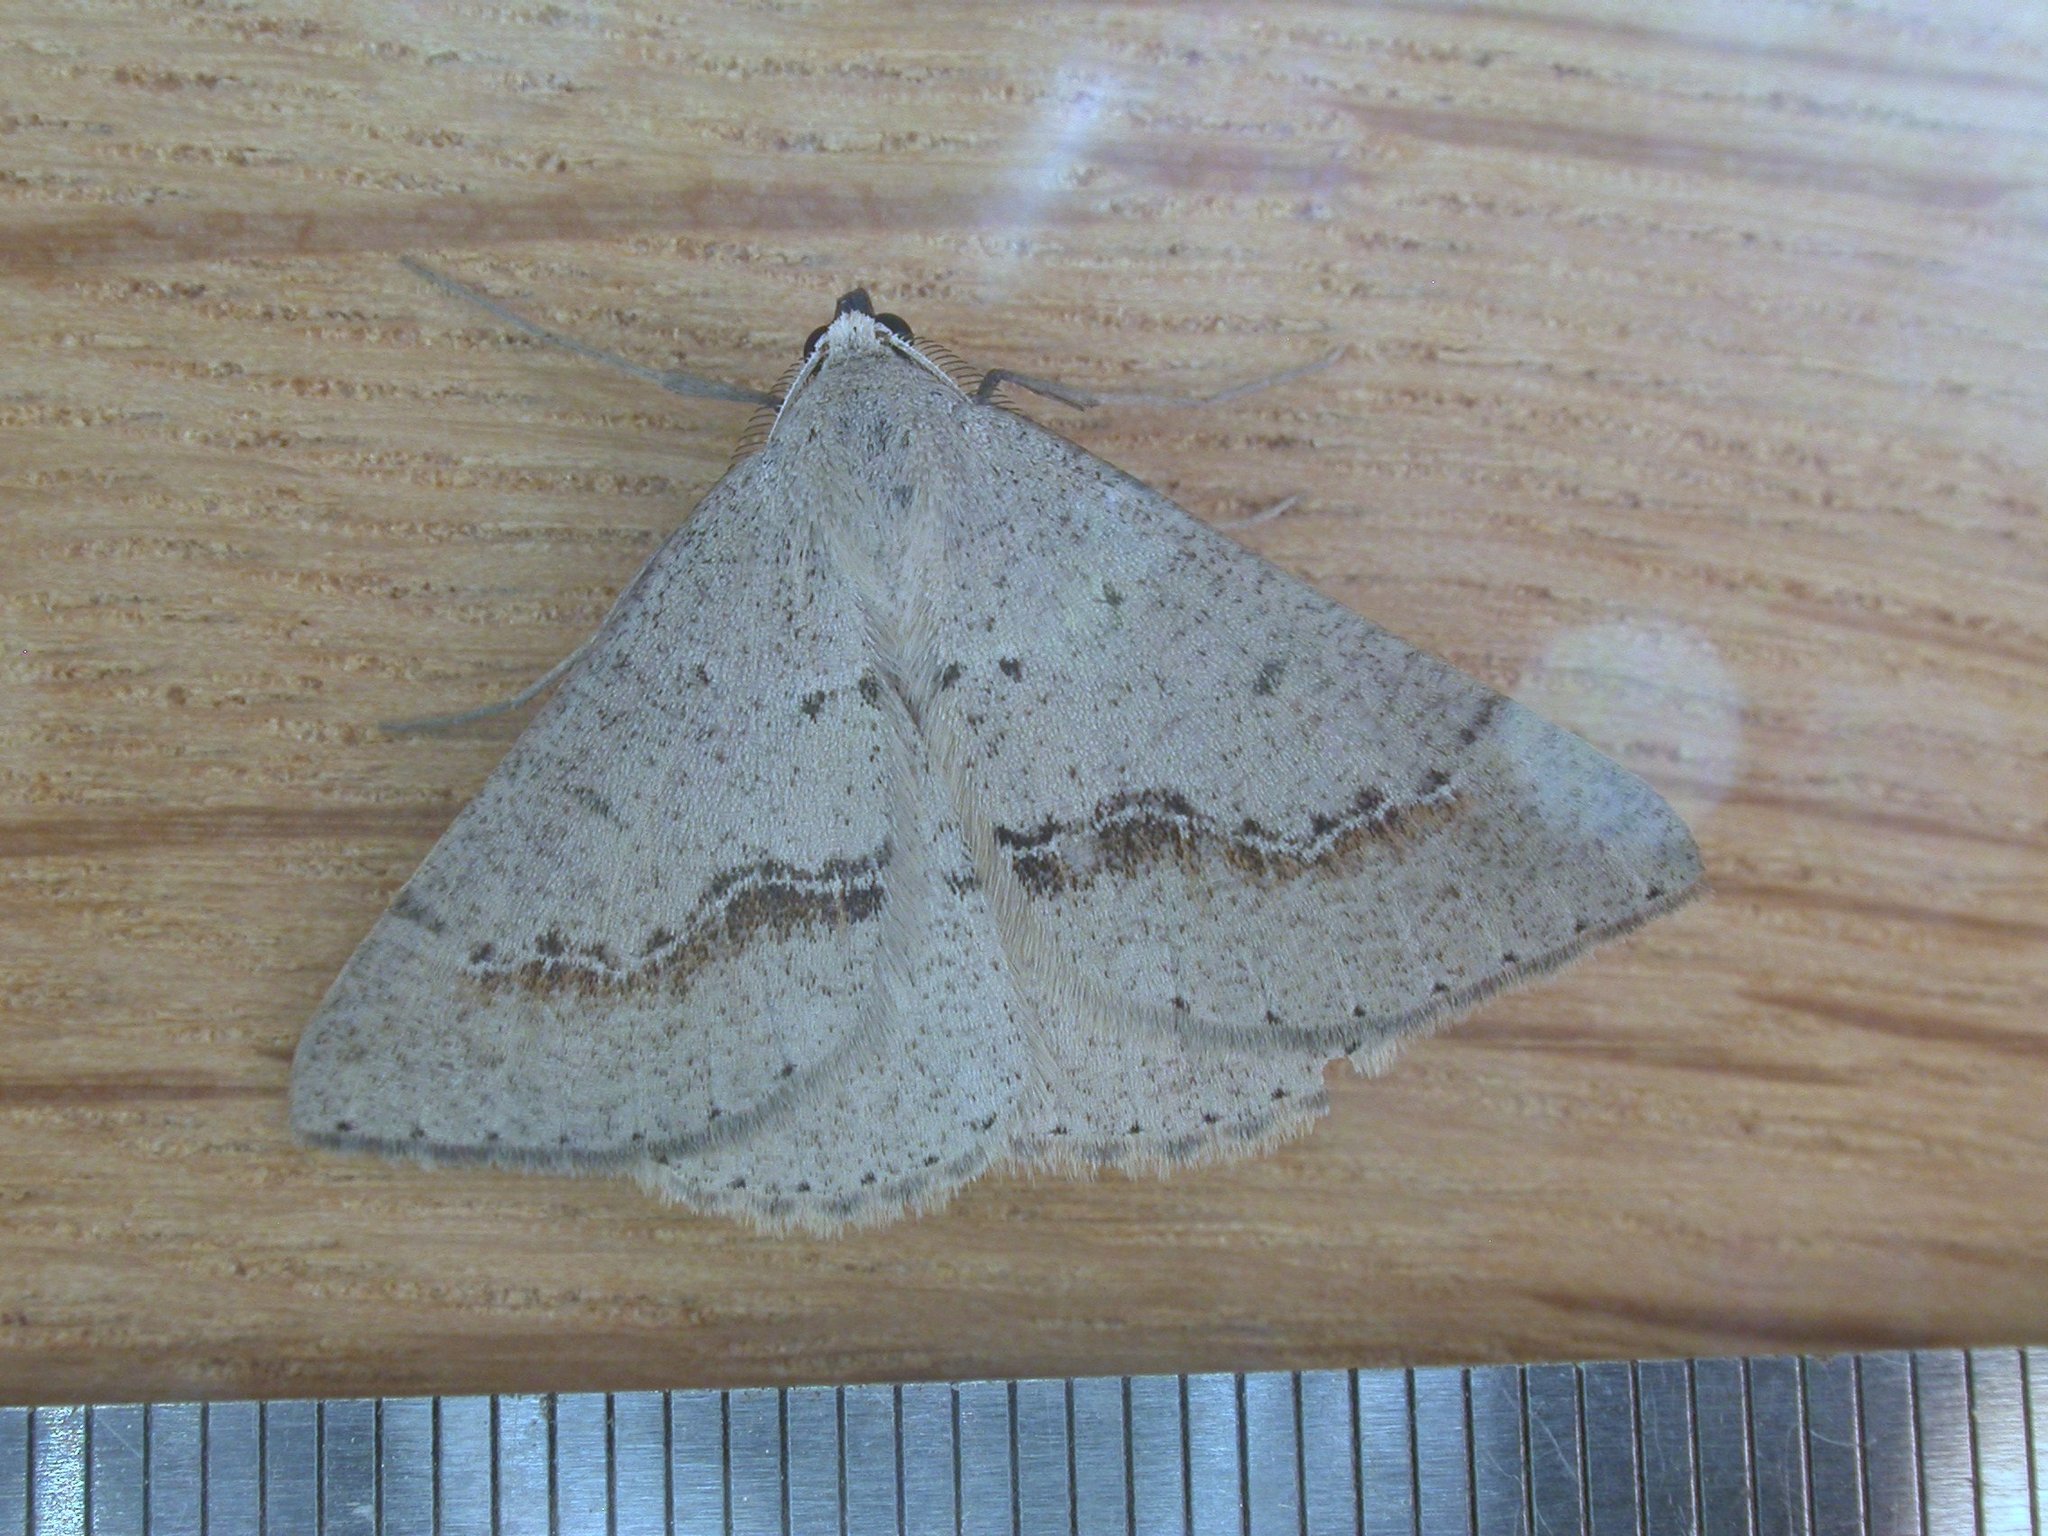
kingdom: Animalia
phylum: Arthropoda
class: Insecta
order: Lepidoptera
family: Geometridae
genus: Nearcha
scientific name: Nearcha dasyzona
